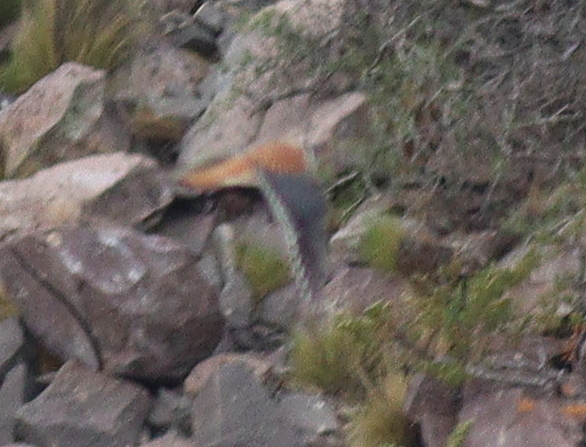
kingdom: Animalia
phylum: Chordata
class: Aves
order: Falconiformes
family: Falconidae
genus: Falco
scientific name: Falco sparverius
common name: American kestrel
